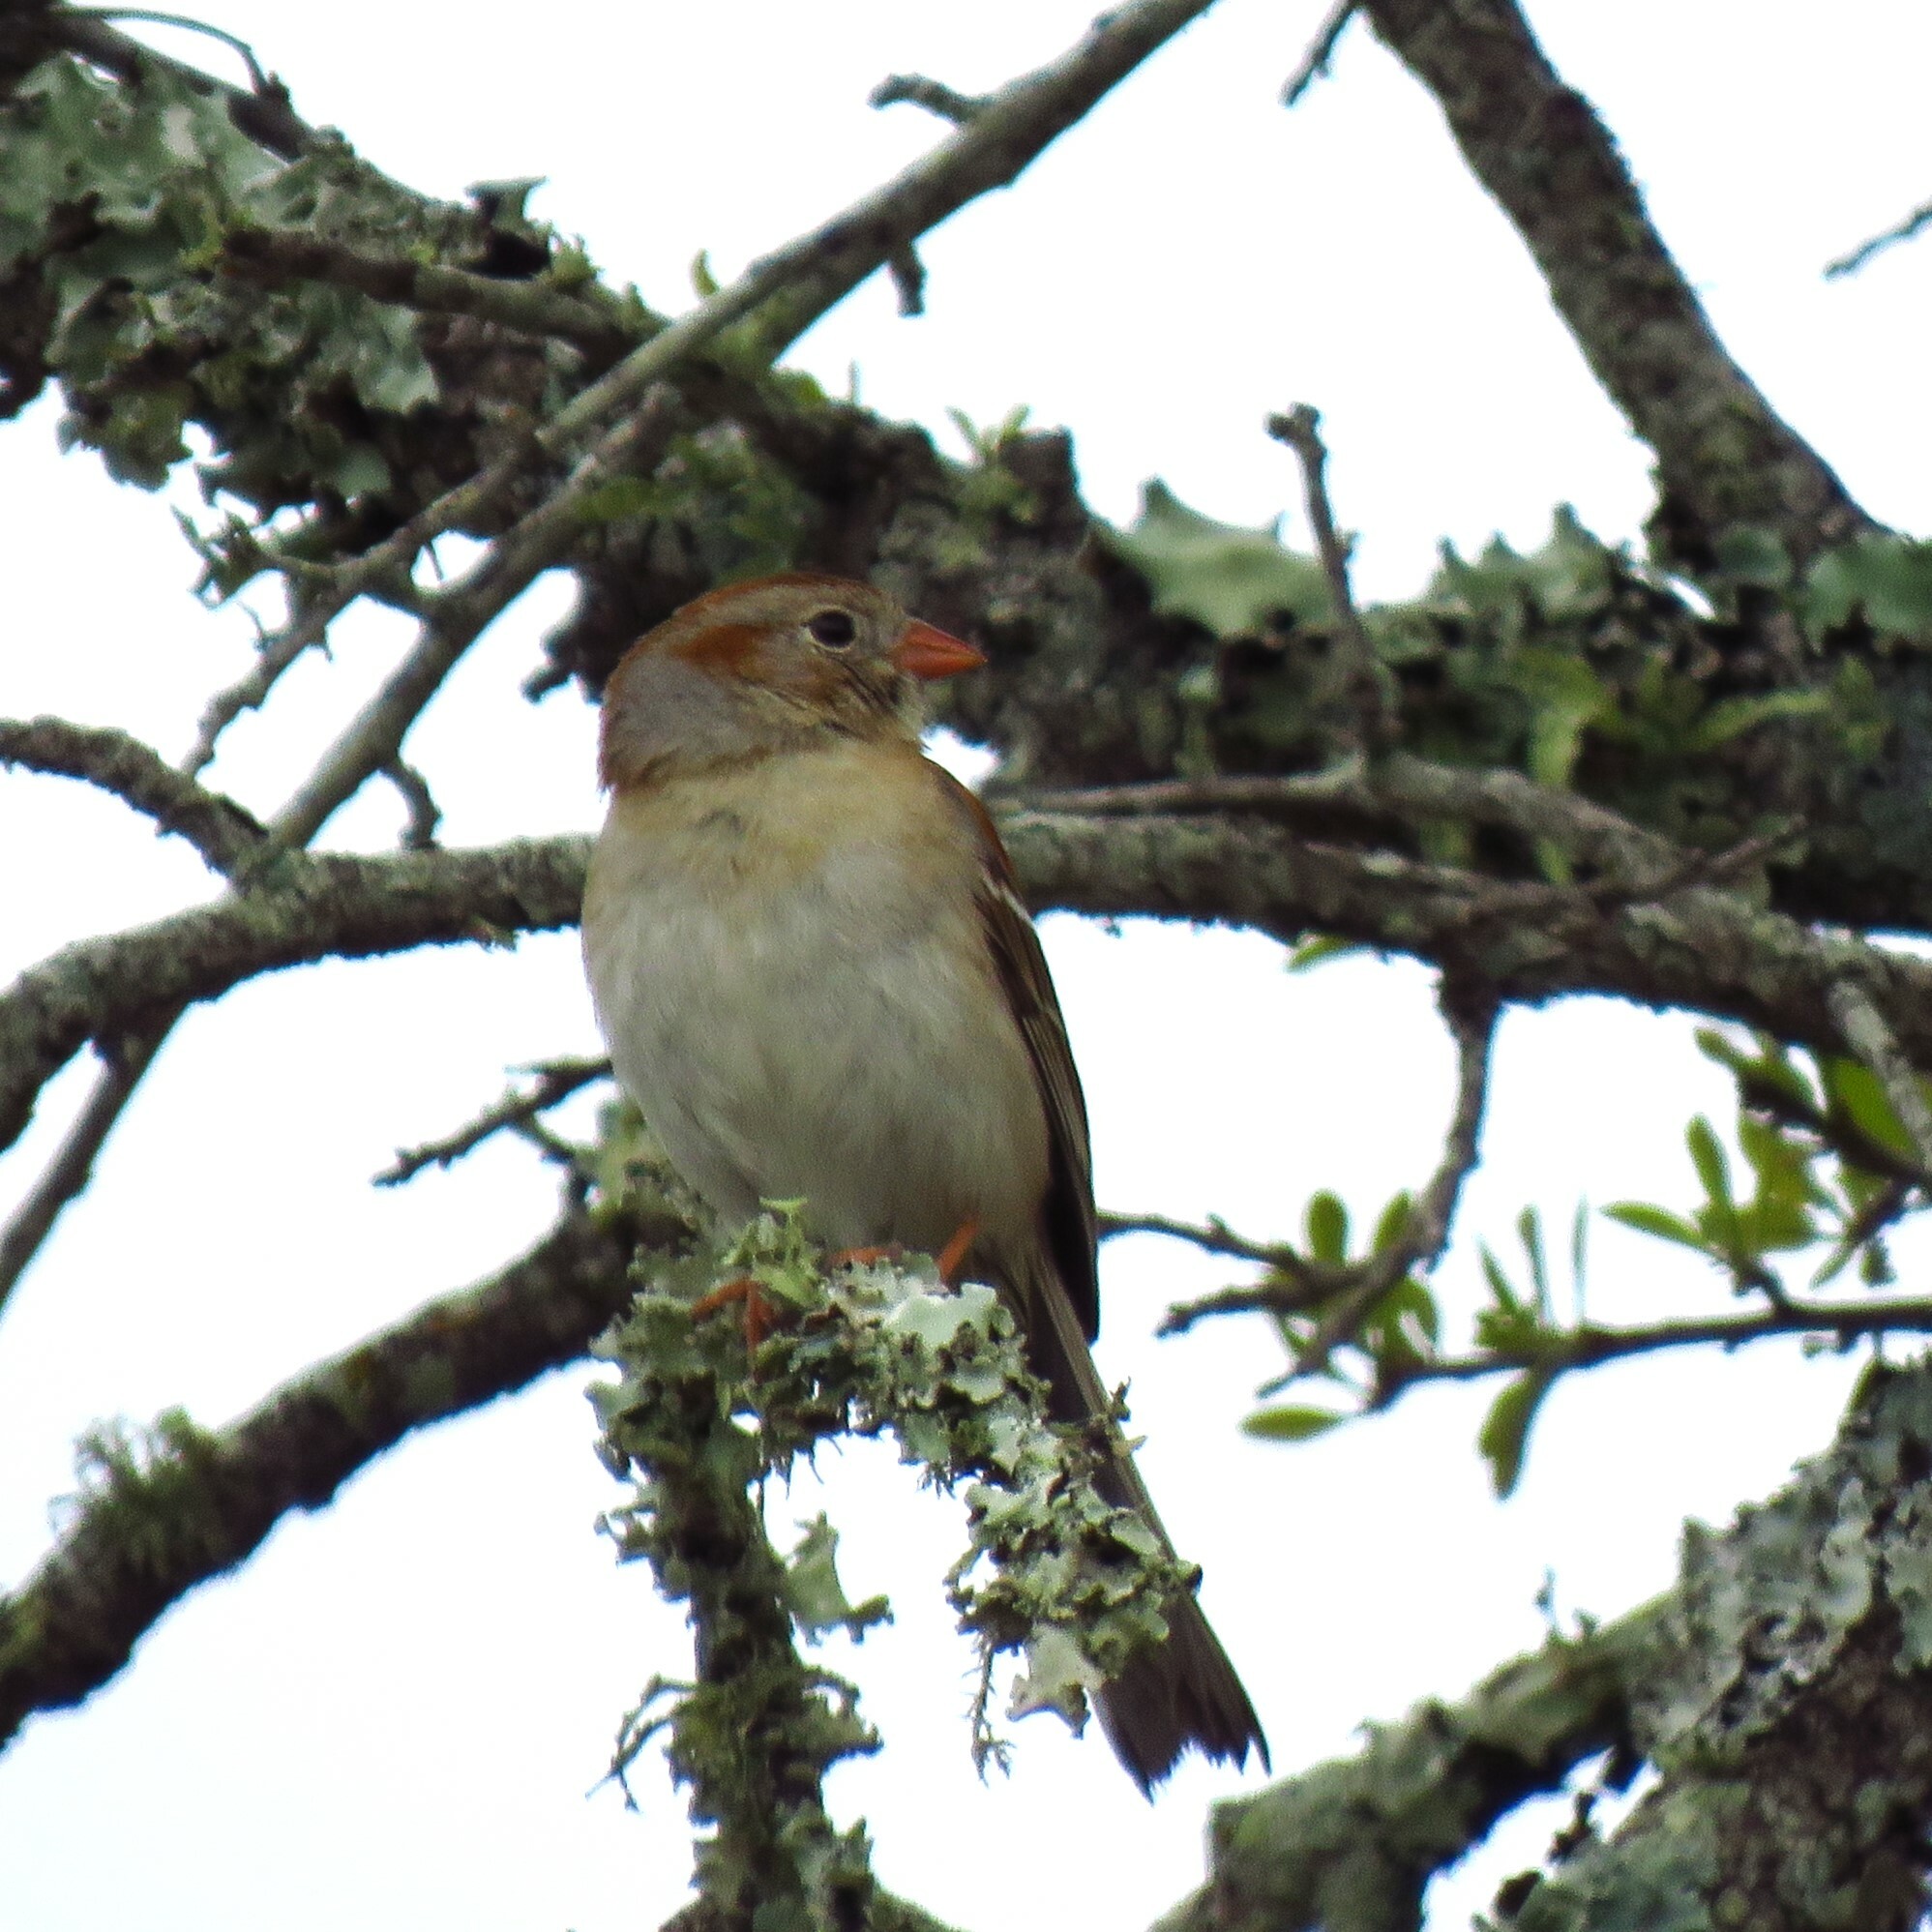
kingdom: Animalia
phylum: Chordata
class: Aves
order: Passeriformes
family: Passerellidae
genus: Spizella
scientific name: Spizella pusilla
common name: Field sparrow
